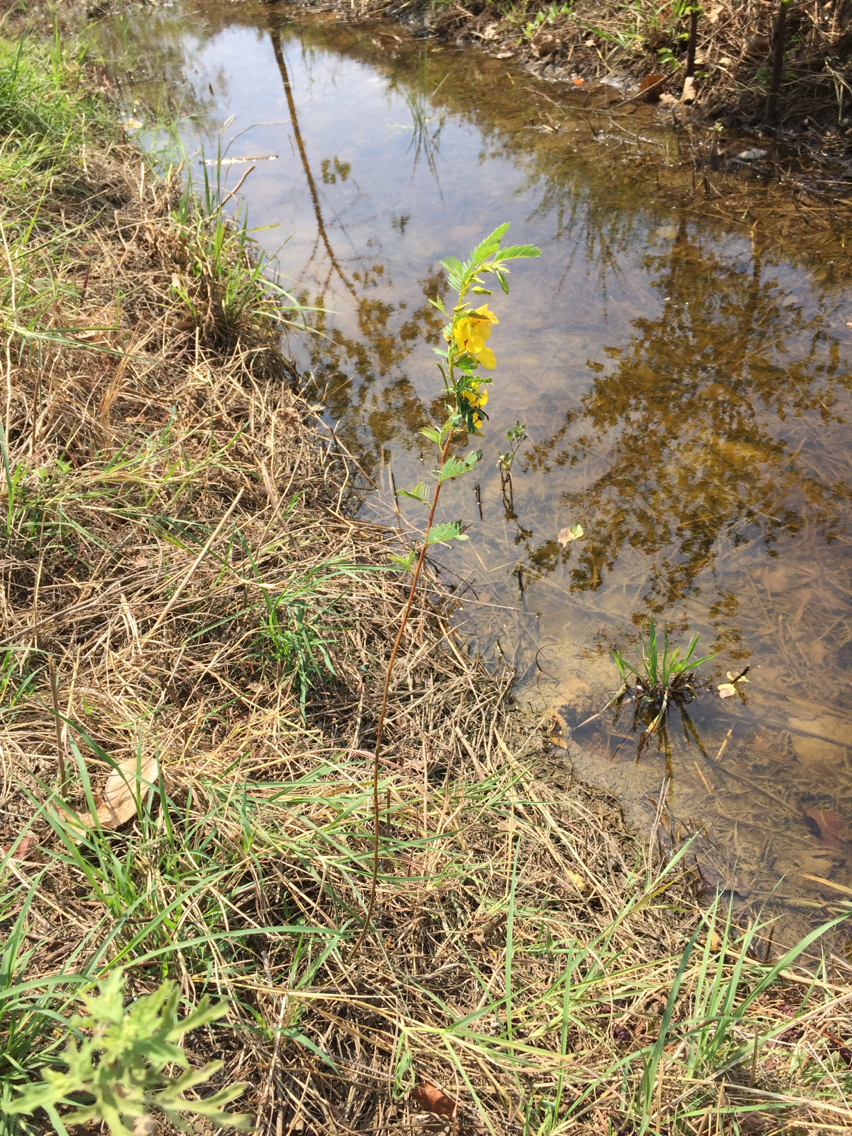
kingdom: Plantae
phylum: Tracheophyta
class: Magnoliopsida
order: Fabales
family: Fabaceae
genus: Chamaecrista
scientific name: Chamaecrista fasciculata
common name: Golden cassia
